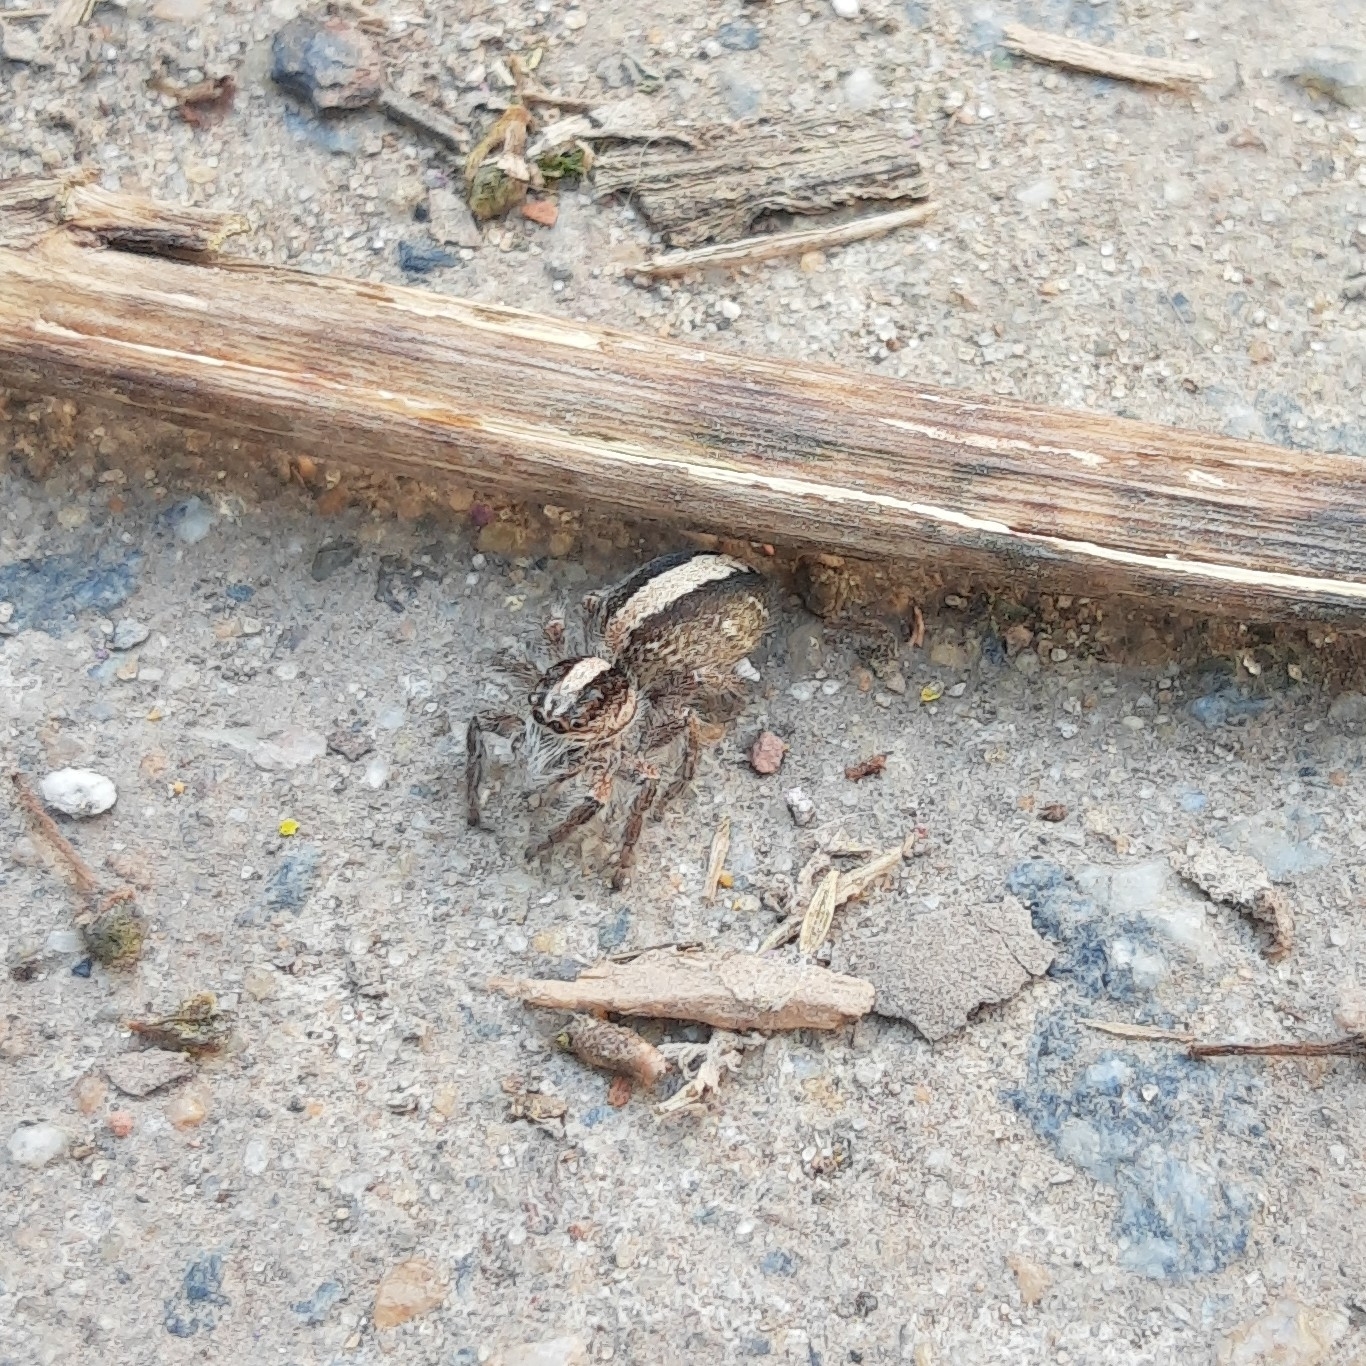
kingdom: Animalia
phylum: Arthropoda
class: Arachnida
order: Araneae
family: Salticidae
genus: Megafreya
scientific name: Megafreya sutrix
